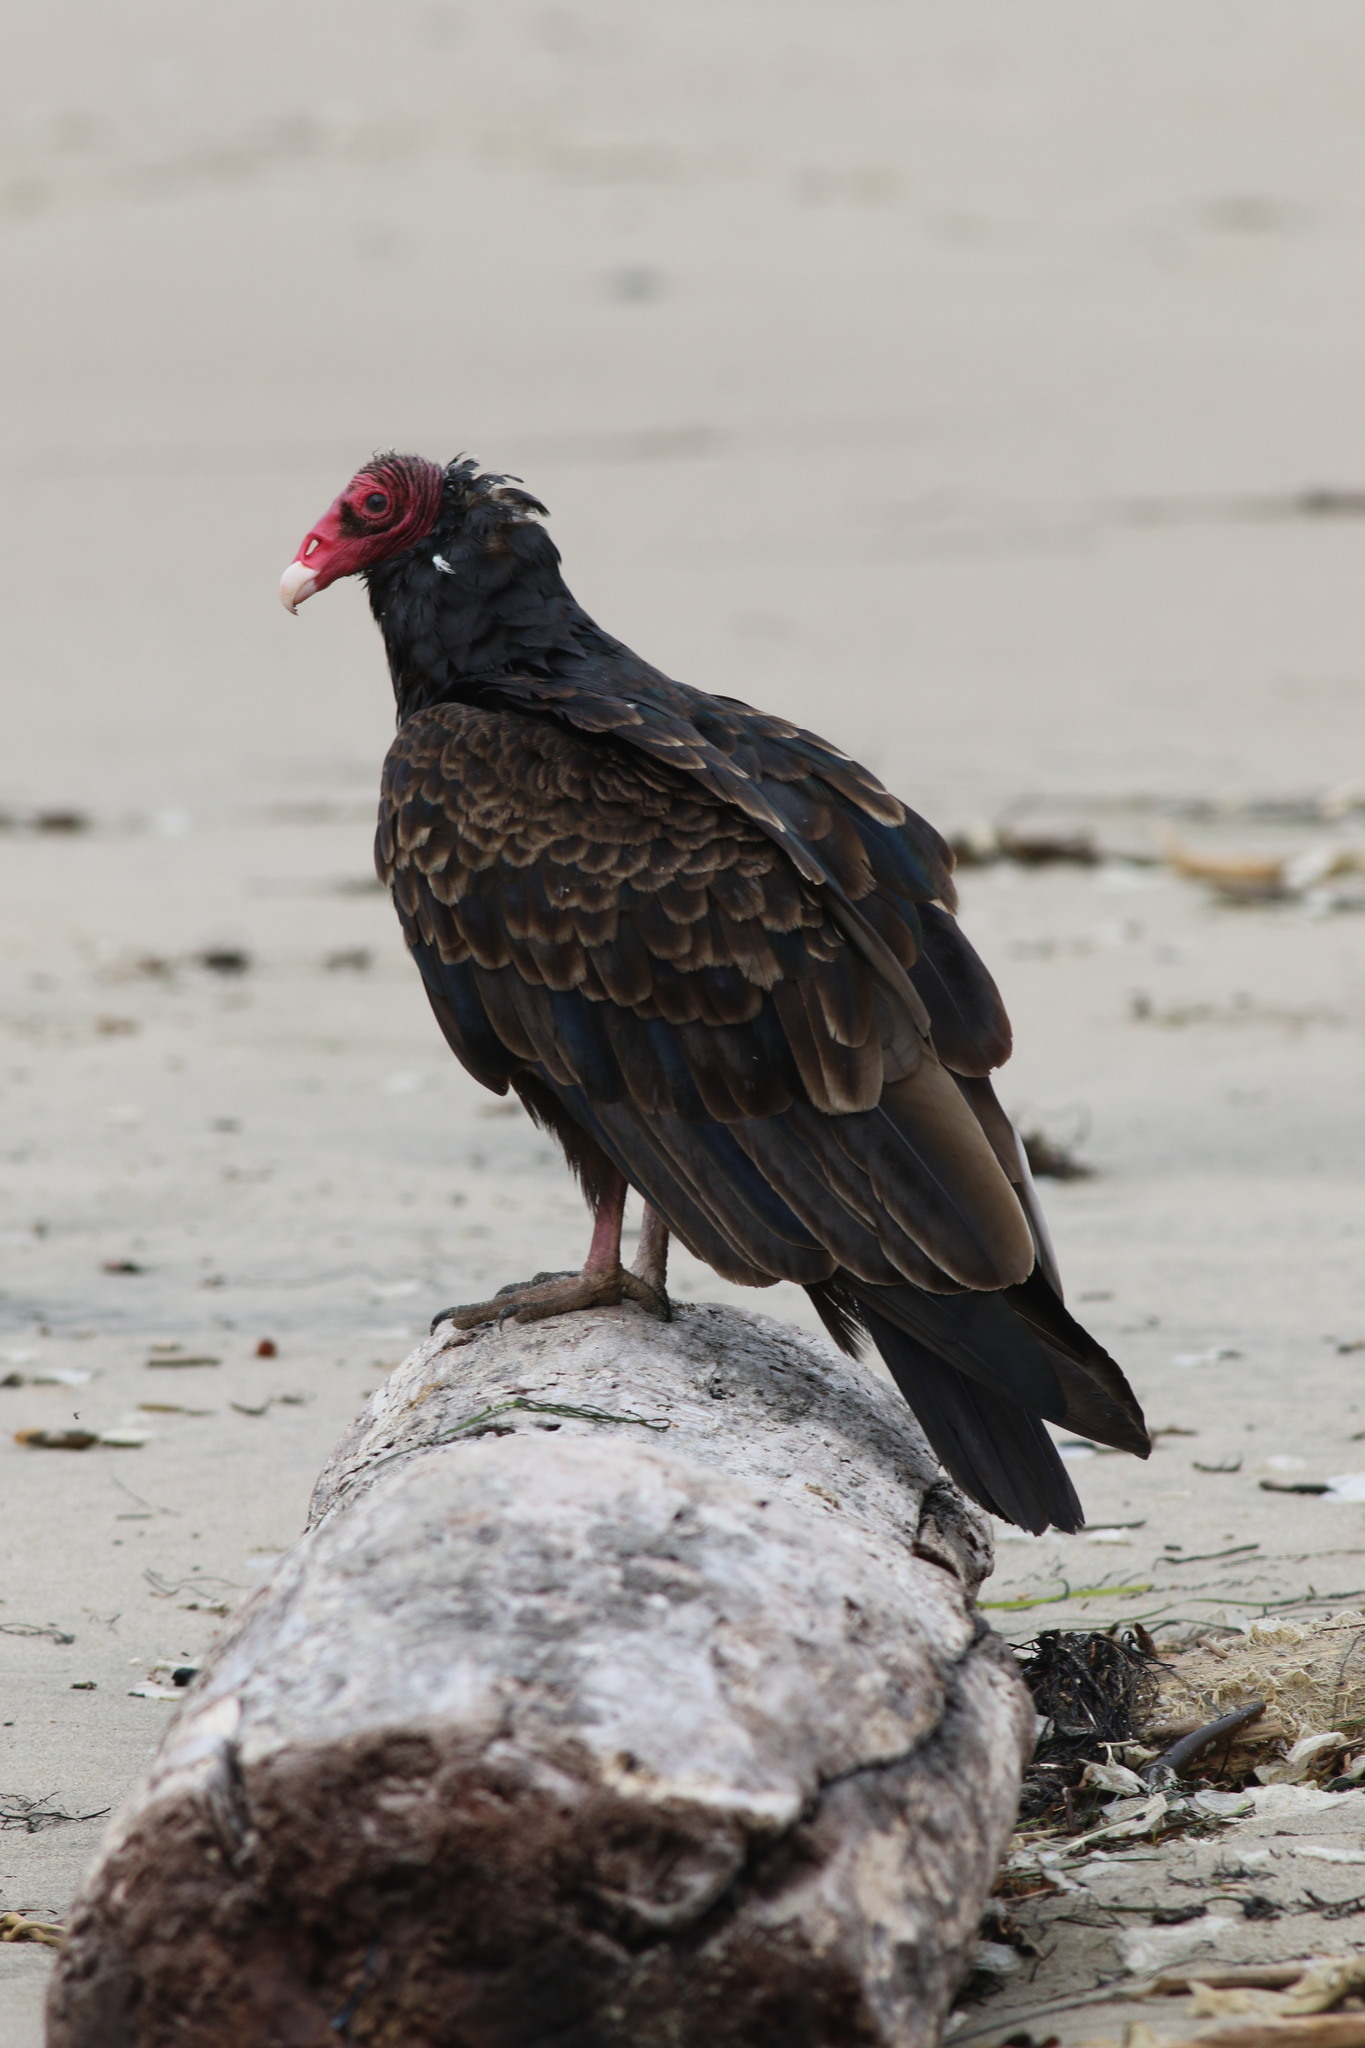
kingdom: Animalia
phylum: Chordata
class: Aves
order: Accipitriformes
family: Cathartidae
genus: Cathartes
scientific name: Cathartes aura
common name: Turkey vulture
